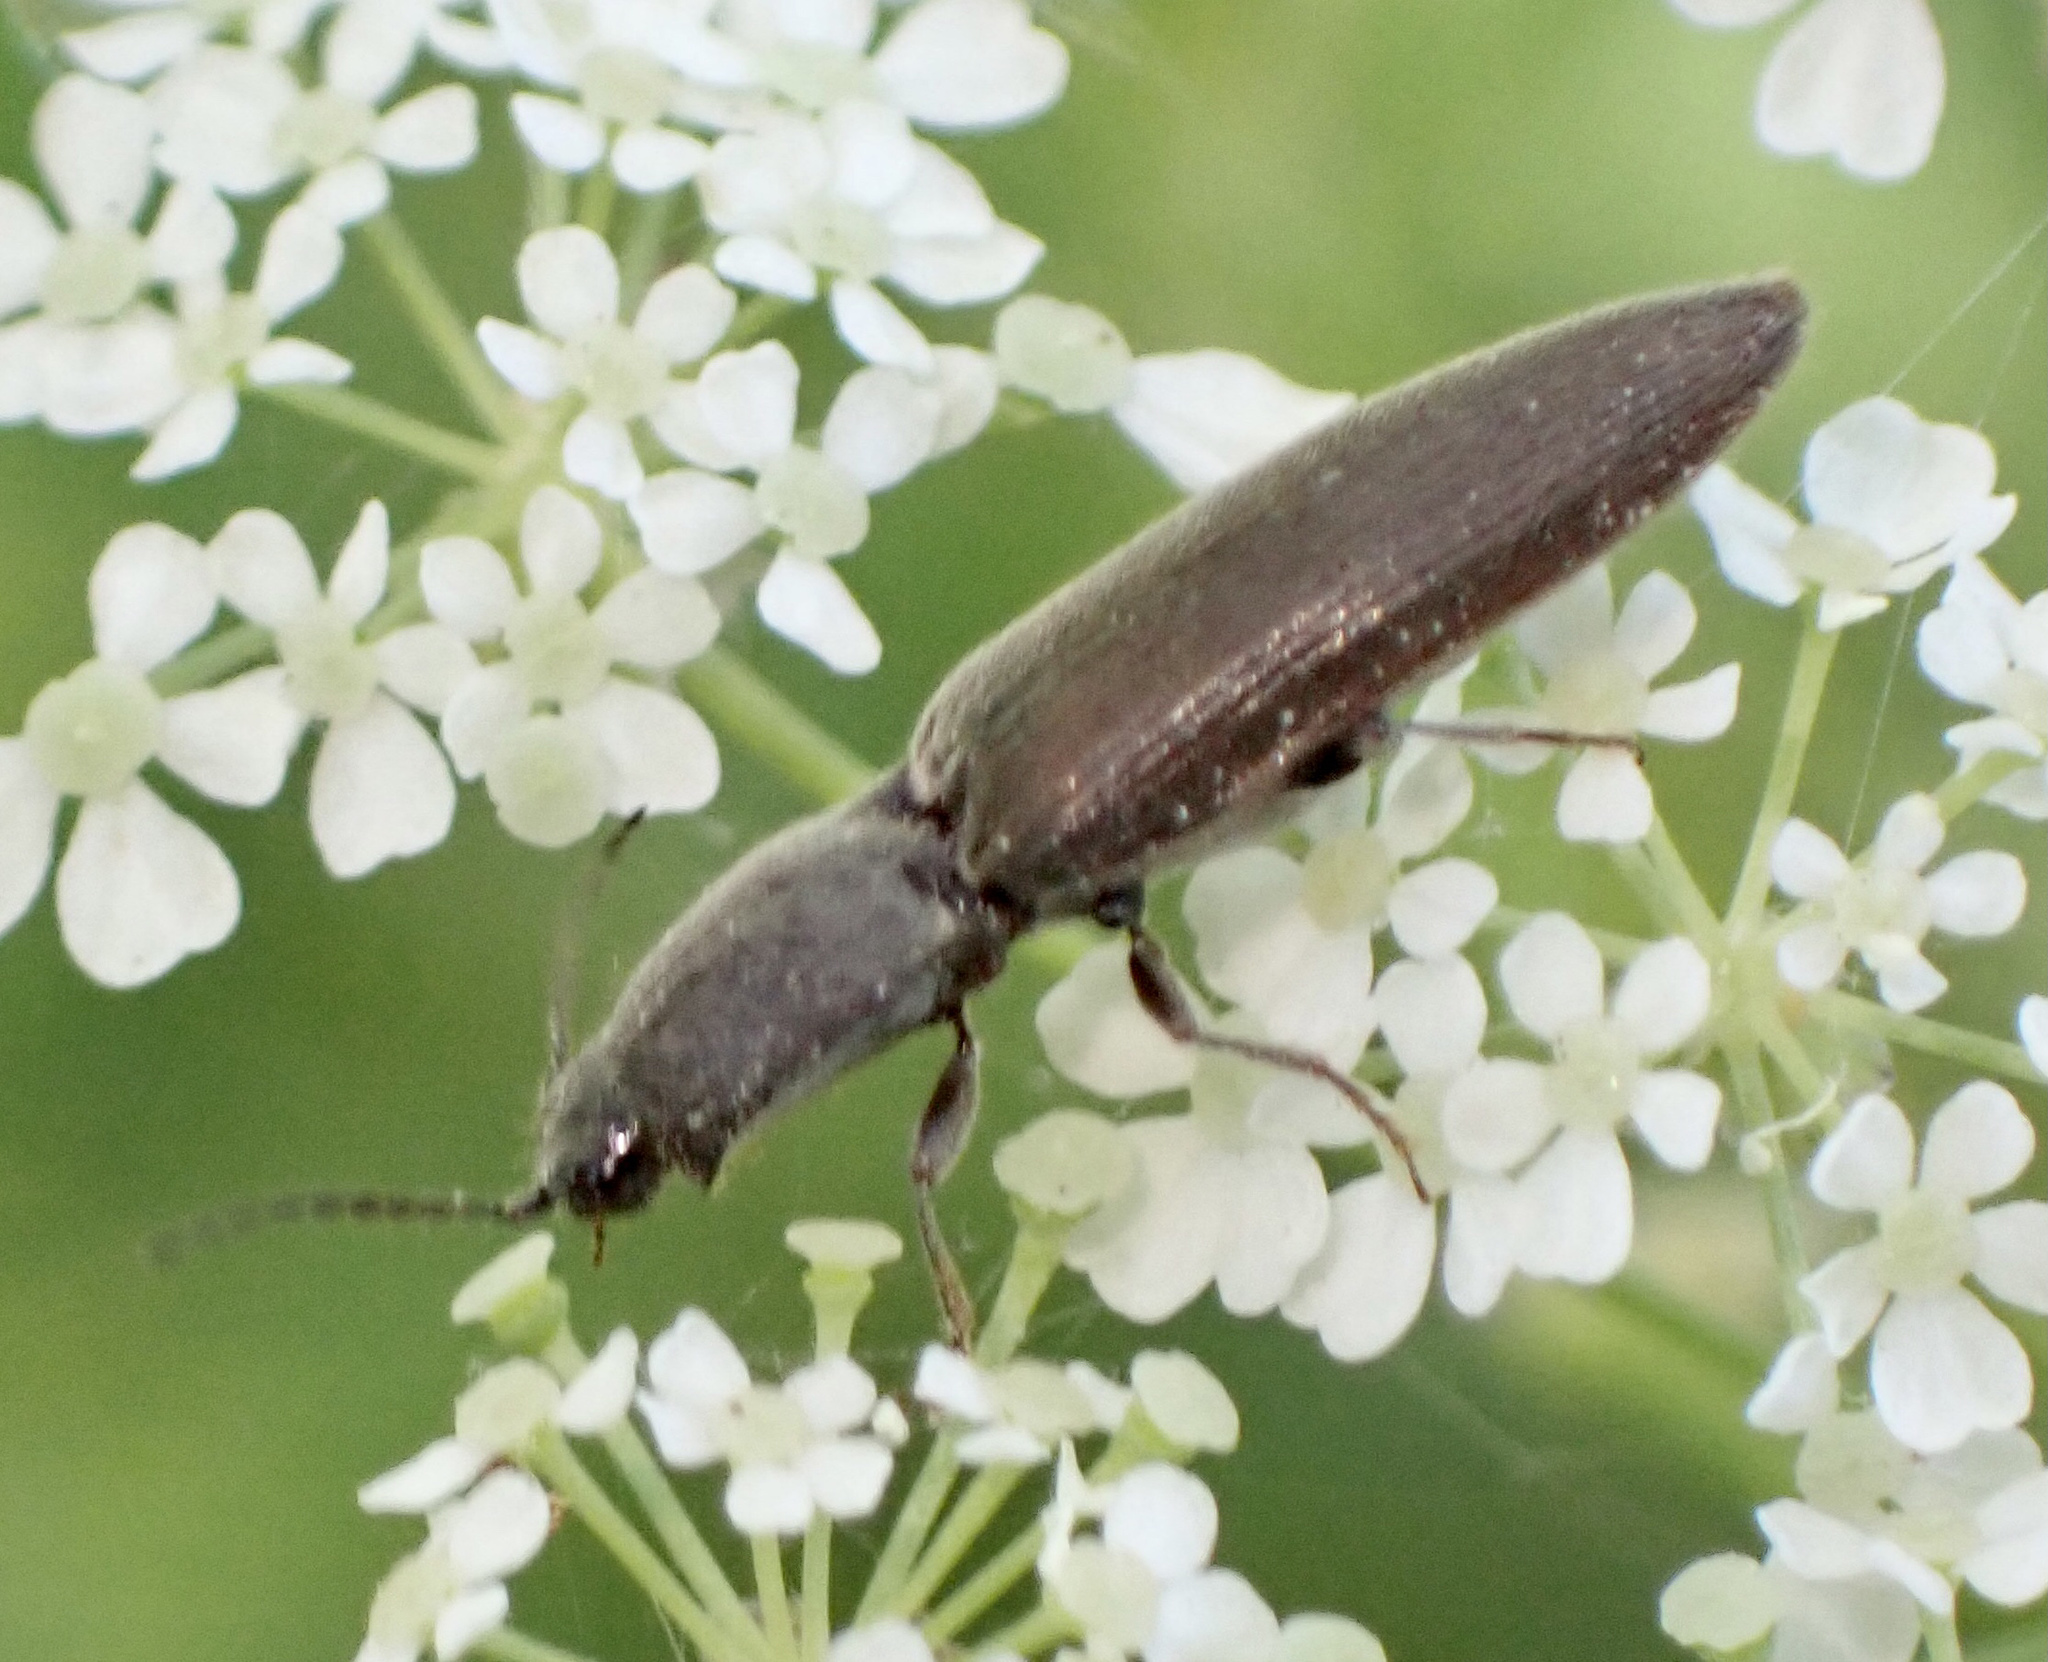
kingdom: Animalia
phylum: Arthropoda
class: Insecta
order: Coleoptera
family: Elateridae
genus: Athous
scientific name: Athous haemorrhoidalis
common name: Red-brown click beetle
